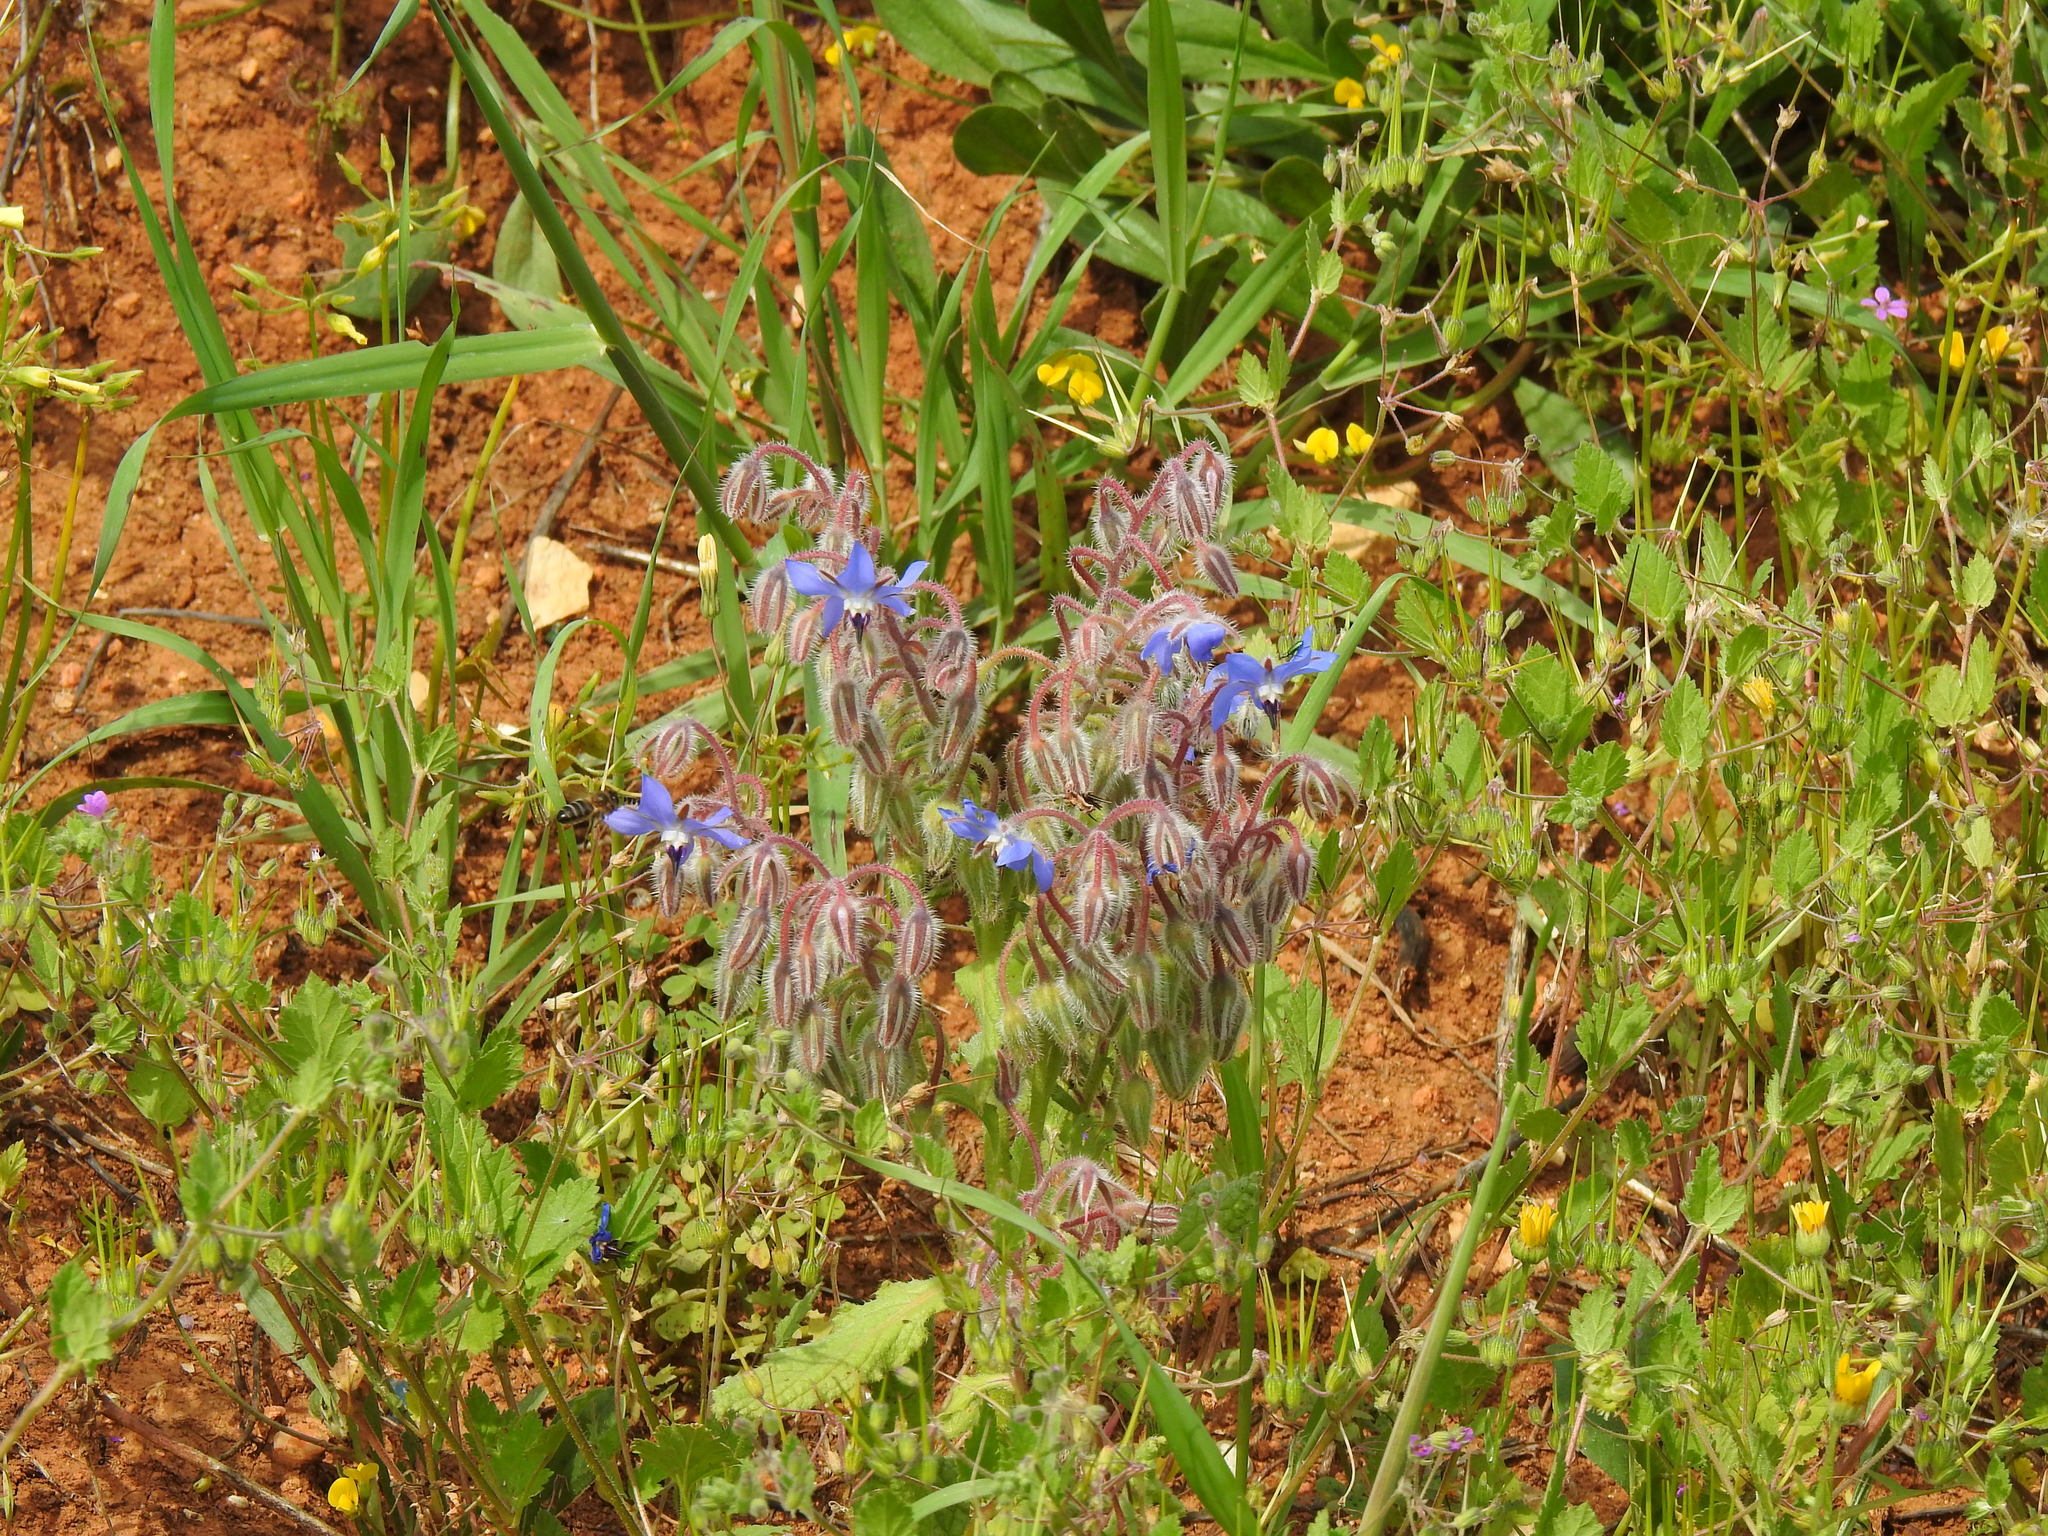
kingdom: Plantae
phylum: Tracheophyta
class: Magnoliopsida
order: Boraginales
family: Boraginaceae
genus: Borago
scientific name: Borago officinalis
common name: Borage
